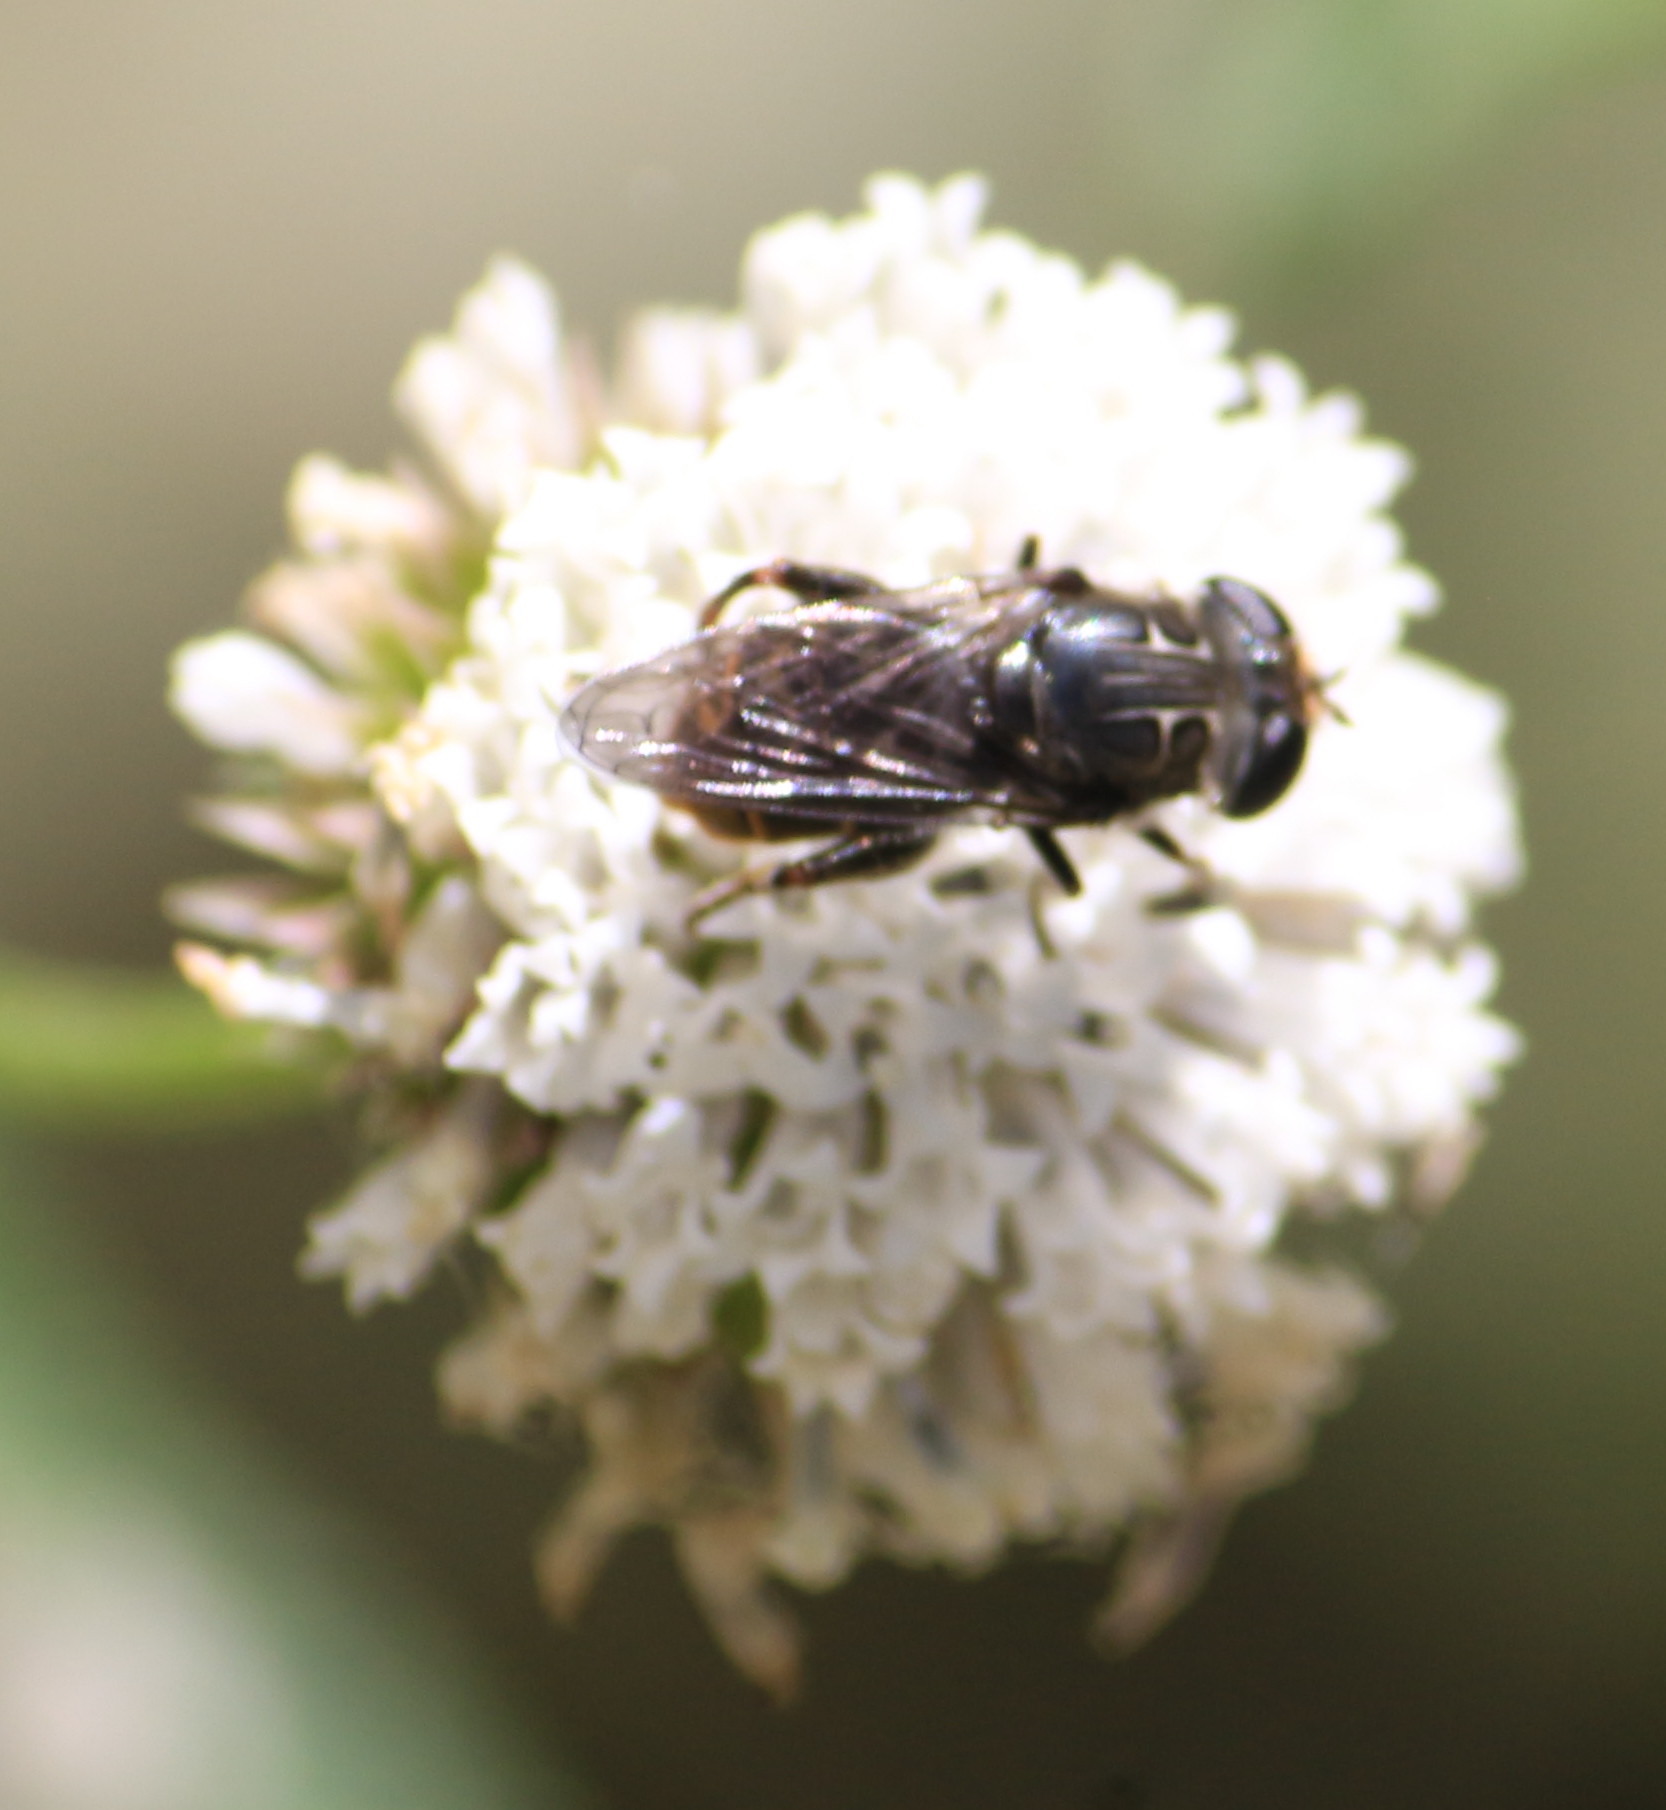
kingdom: Animalia
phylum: Arthropoda
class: Insecta
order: Diptera
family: Syrphidae
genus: Asemosyrphus
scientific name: Asemosyrphus
